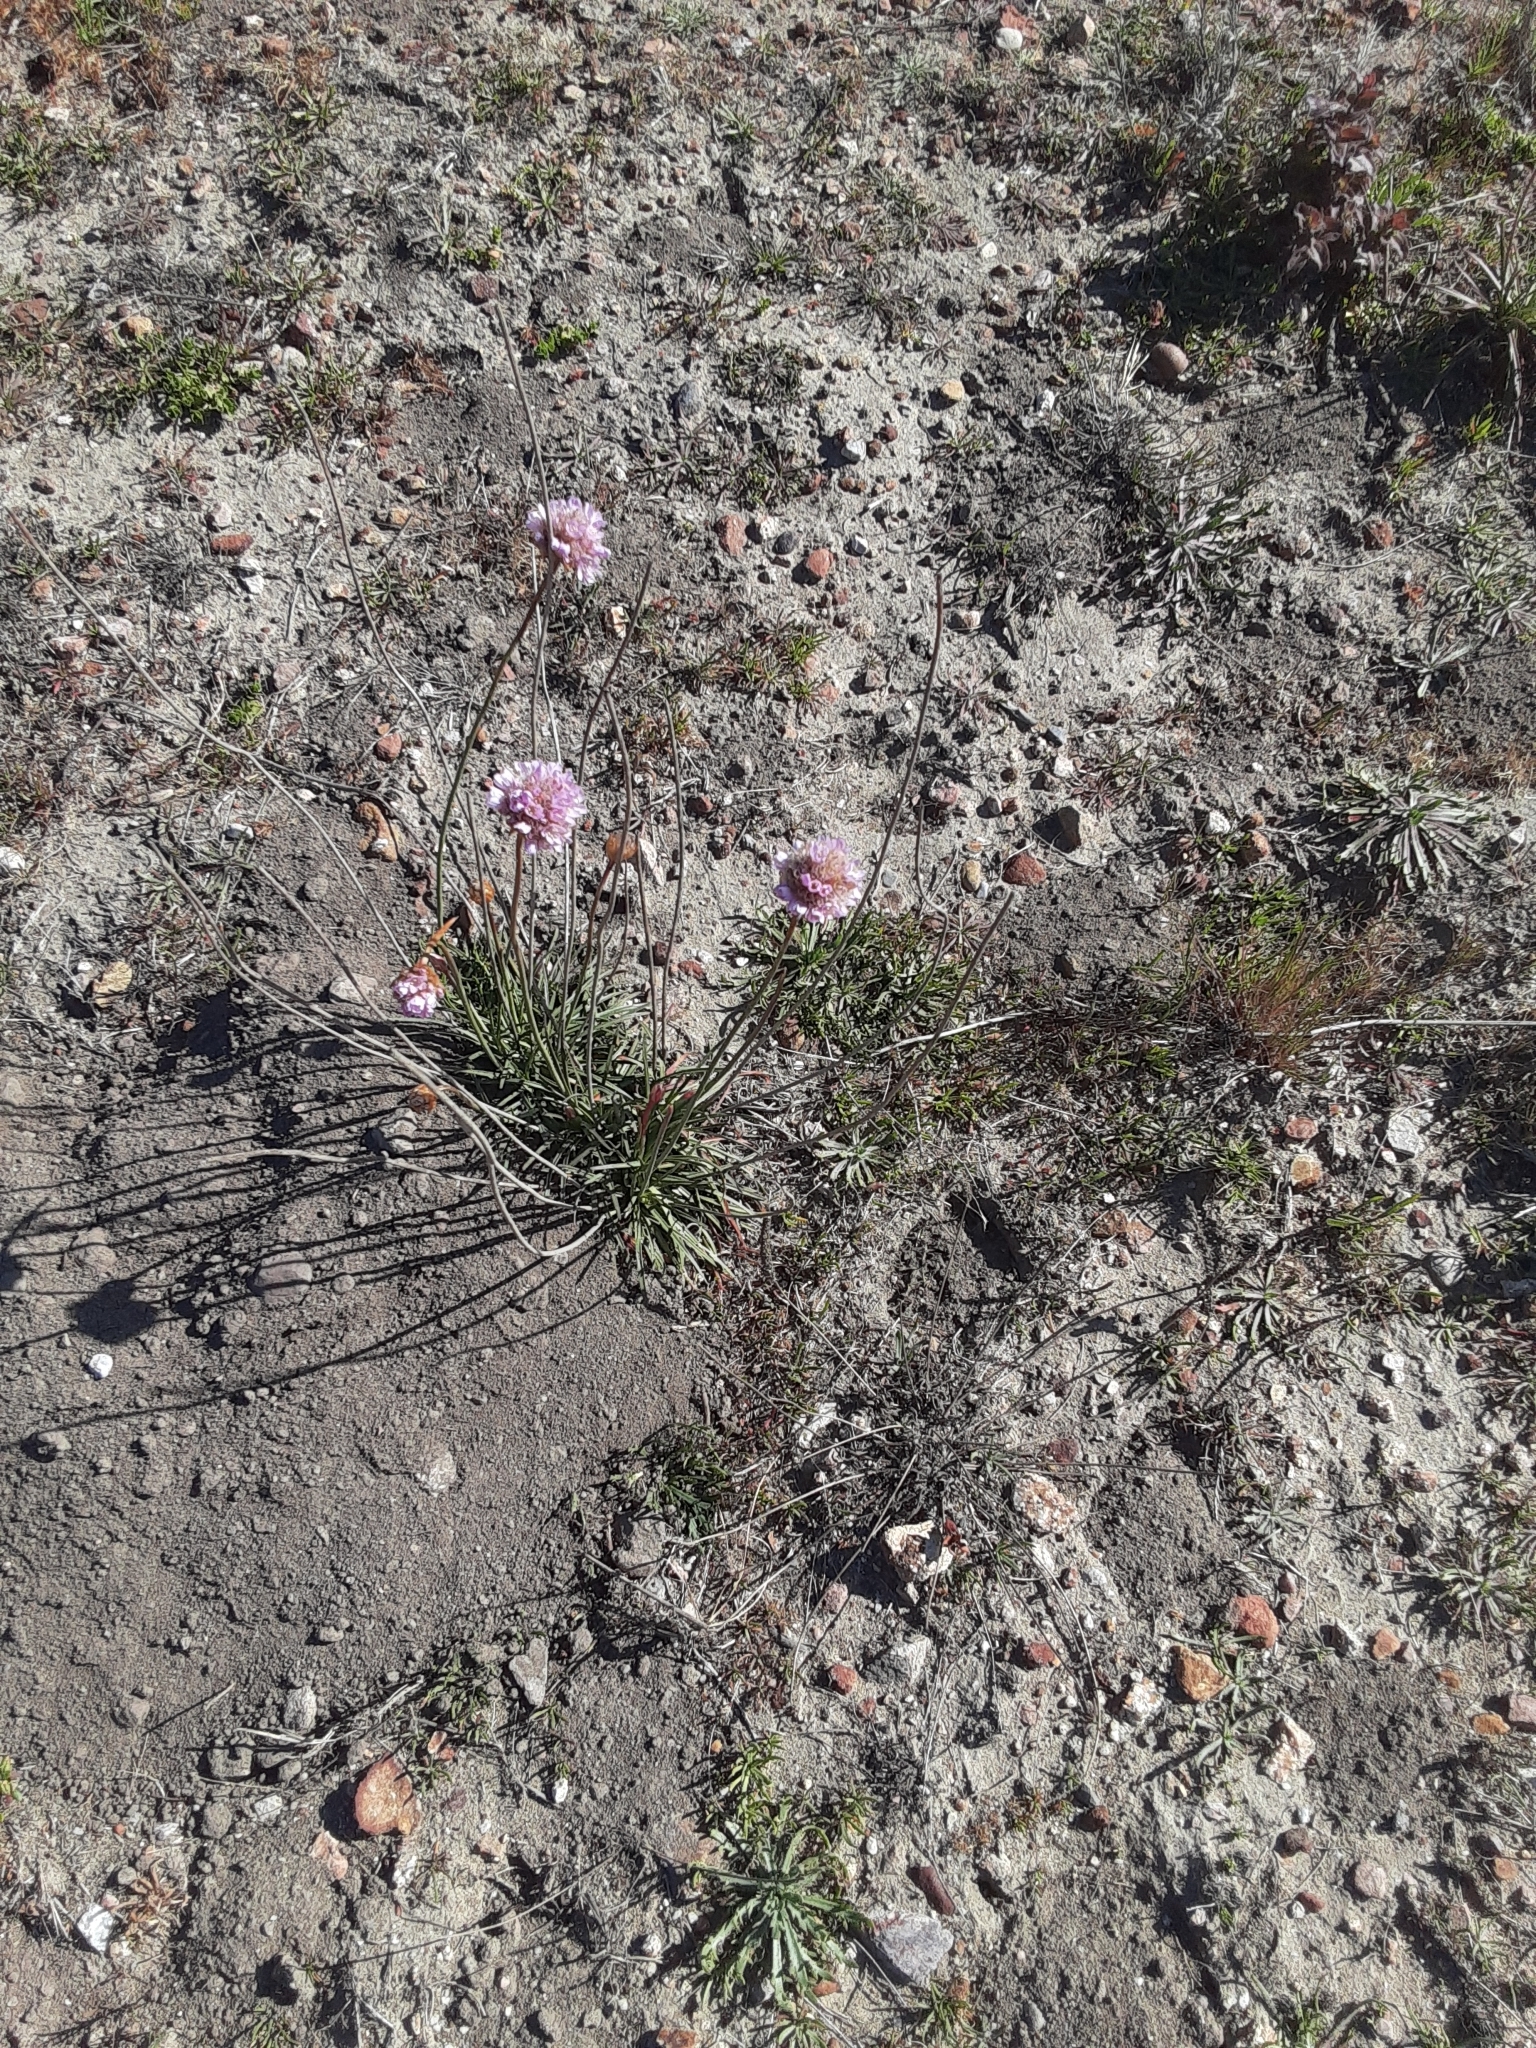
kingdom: Plantae
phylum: Tracheophyta
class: Magnoliopsida
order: Caryophyllales
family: Plumbaginaceae
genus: Armeria
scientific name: Armeria maritima
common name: Thrift
